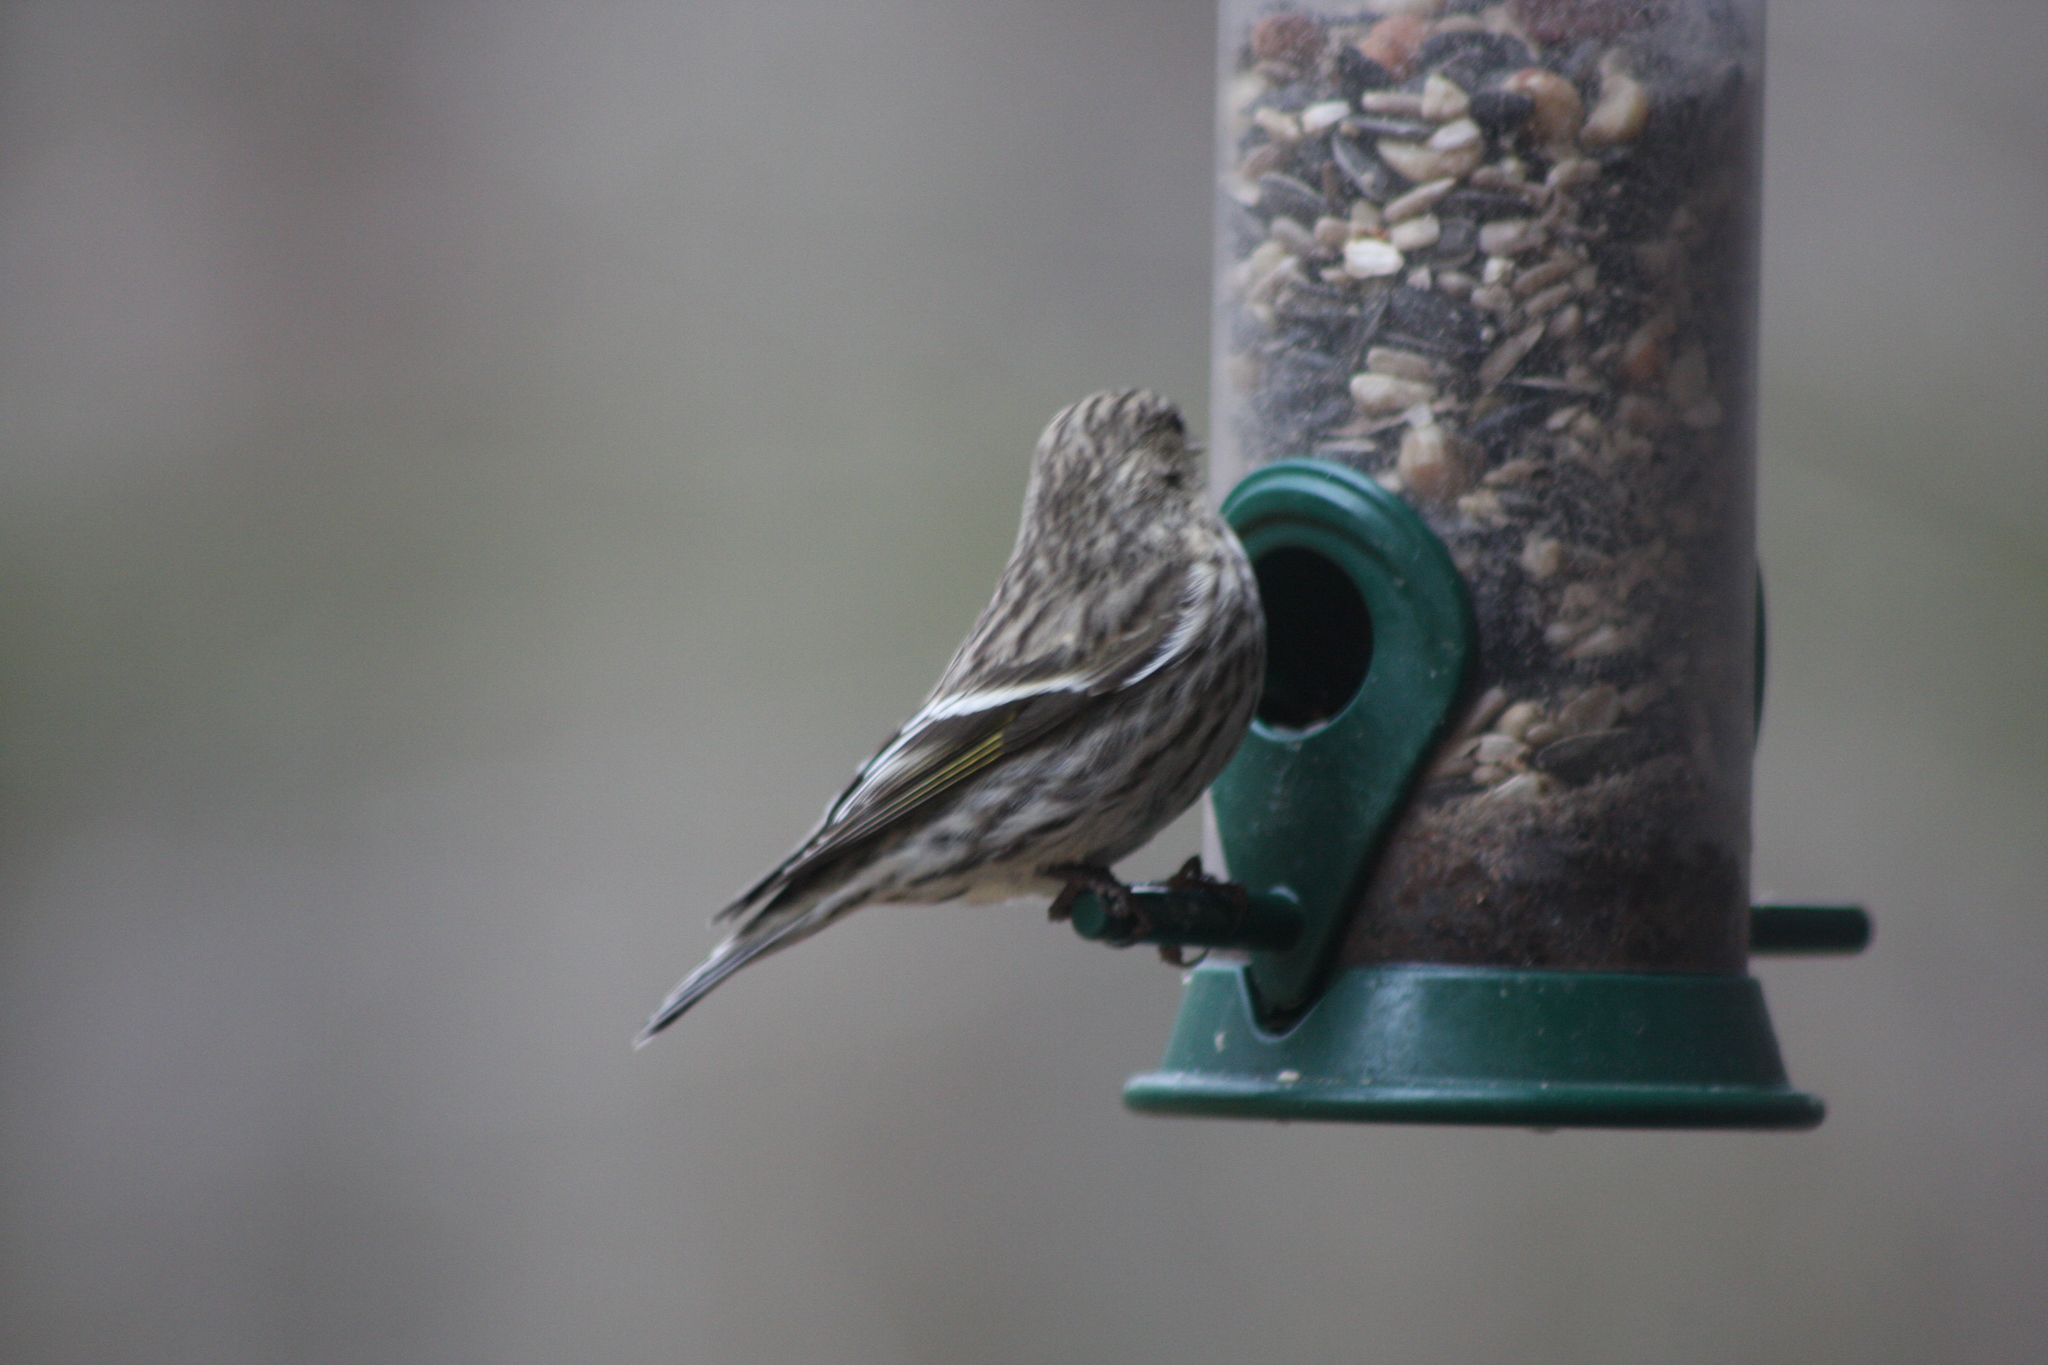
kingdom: Animalia
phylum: Chordata
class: Aves
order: Passeriformes
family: Fringillidae
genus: Spinus
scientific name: Spinus pinus
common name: Pine siskin
